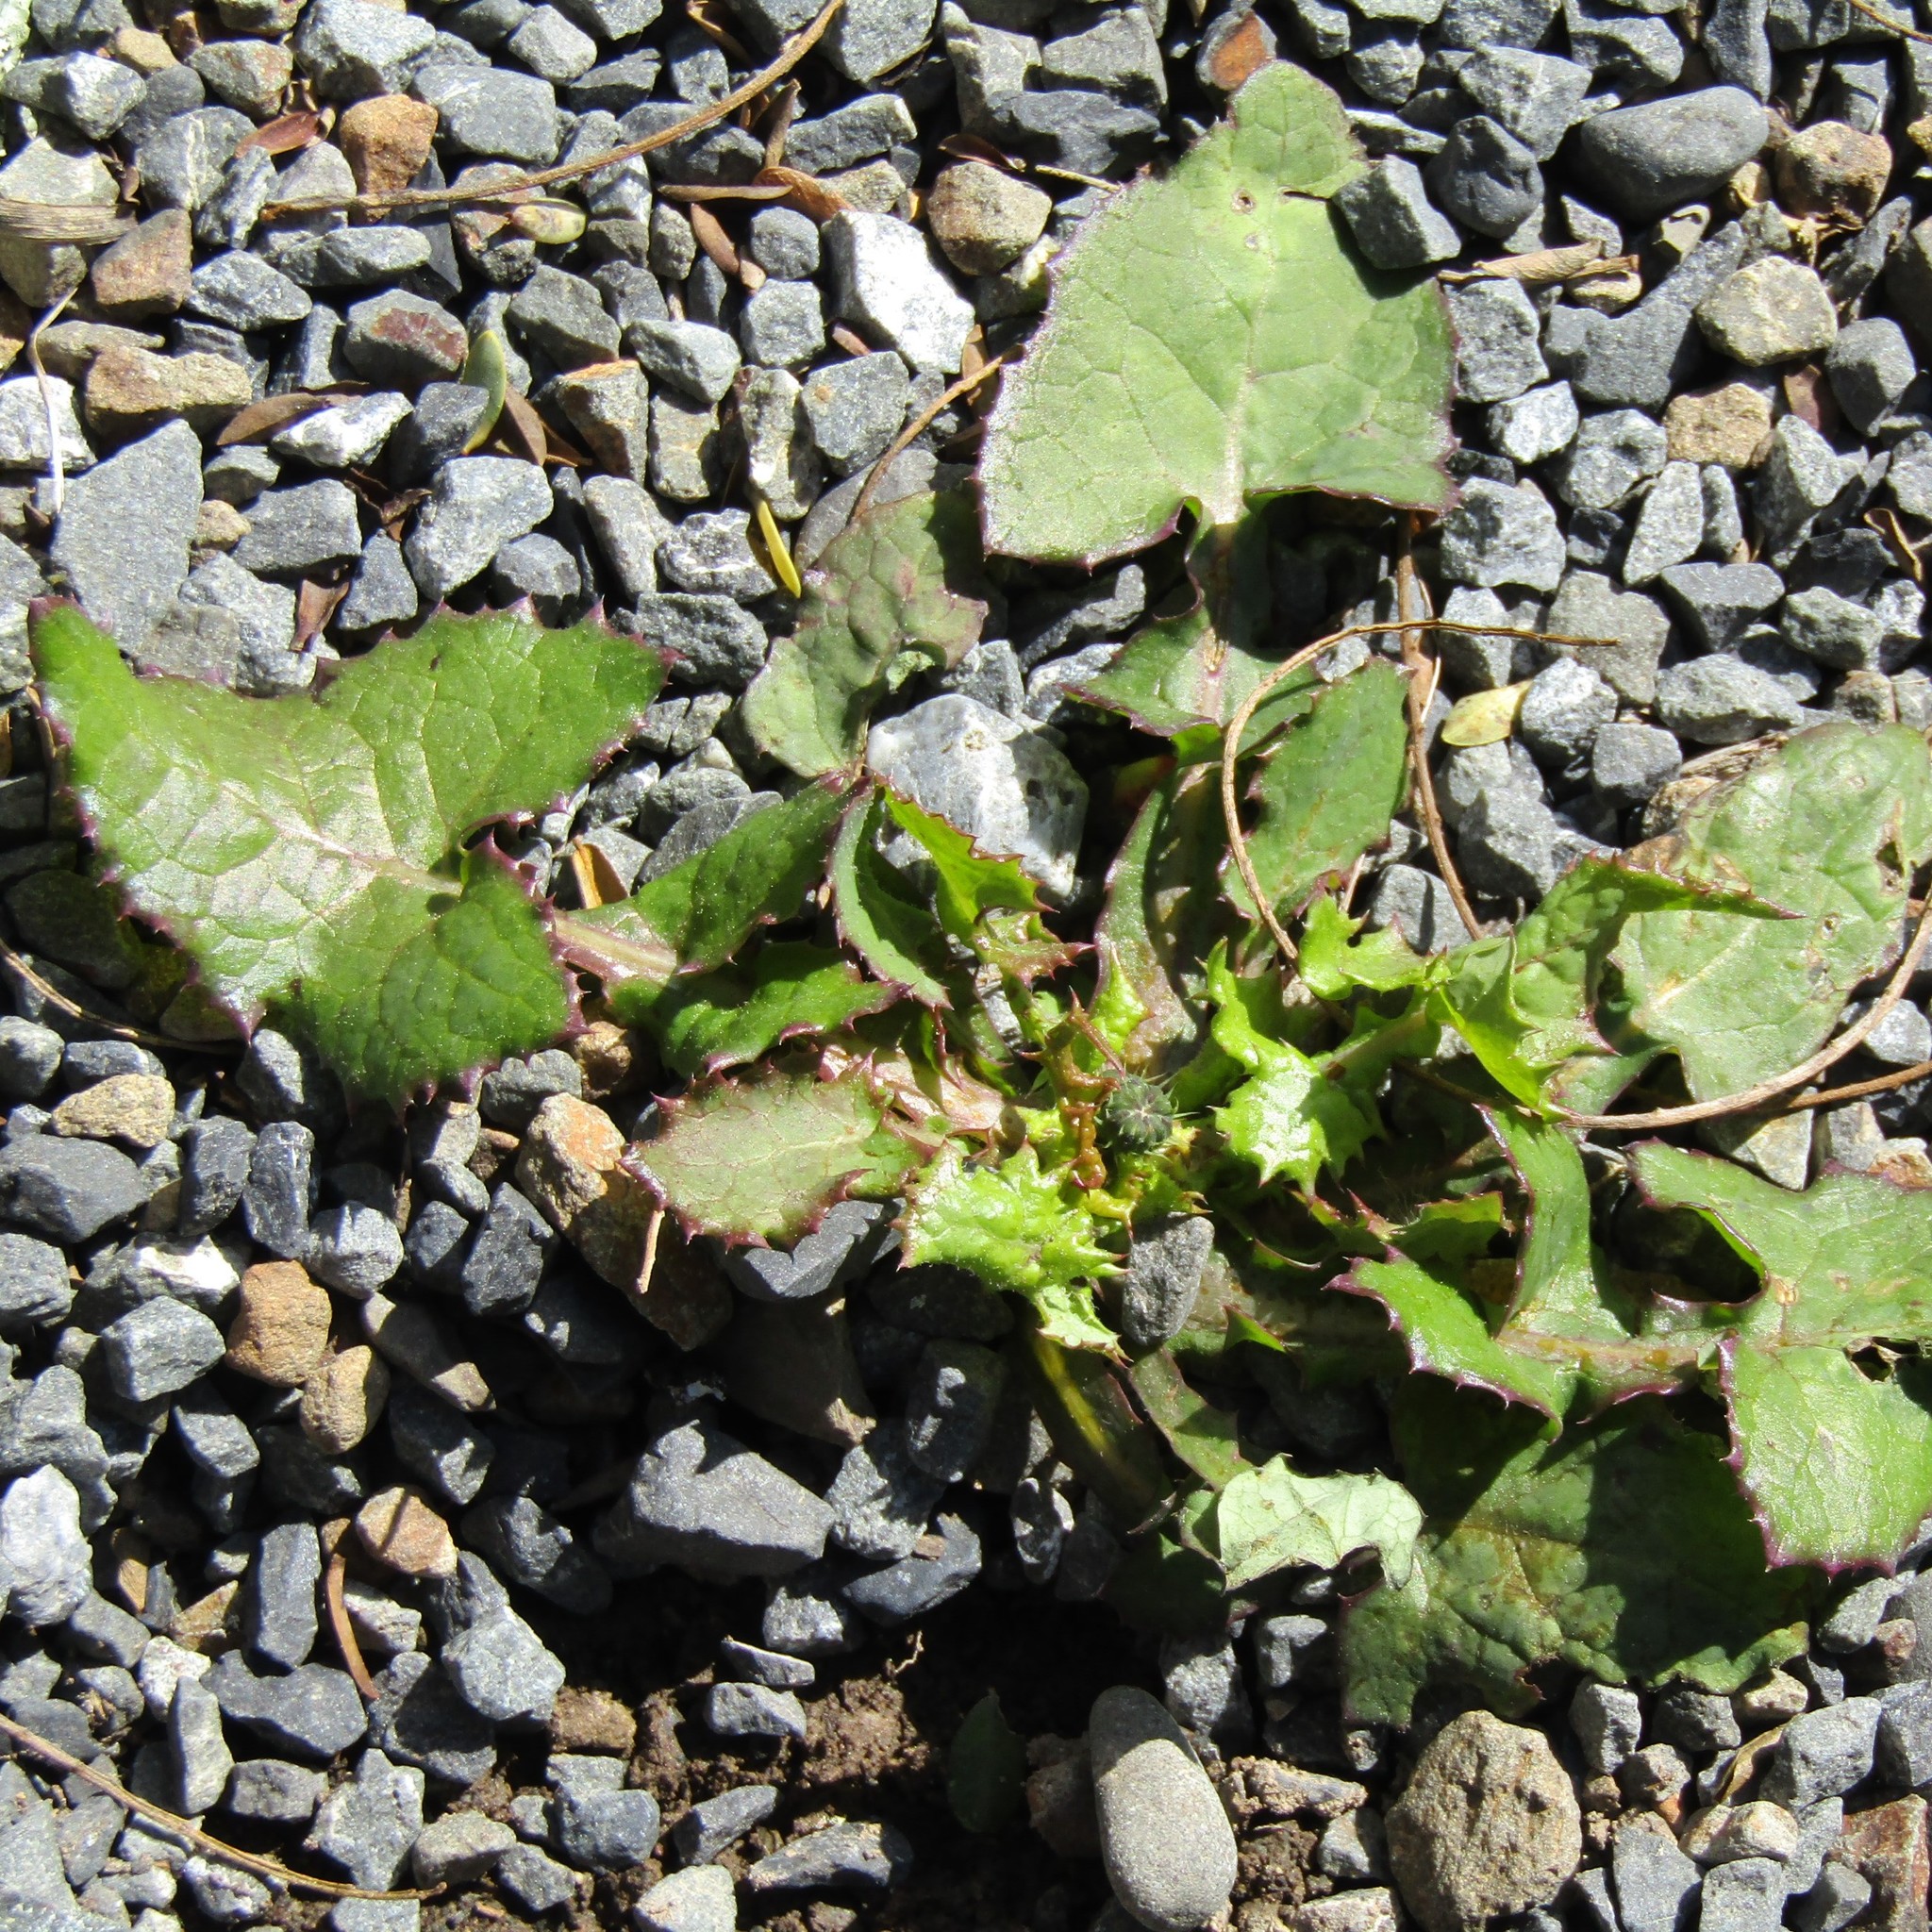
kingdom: Plantae
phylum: Tracheophyta
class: Magnoliopsida
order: Asterales
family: Asteraceae
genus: Sonchus
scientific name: Sonchus oleraceus
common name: Common sowthistle
